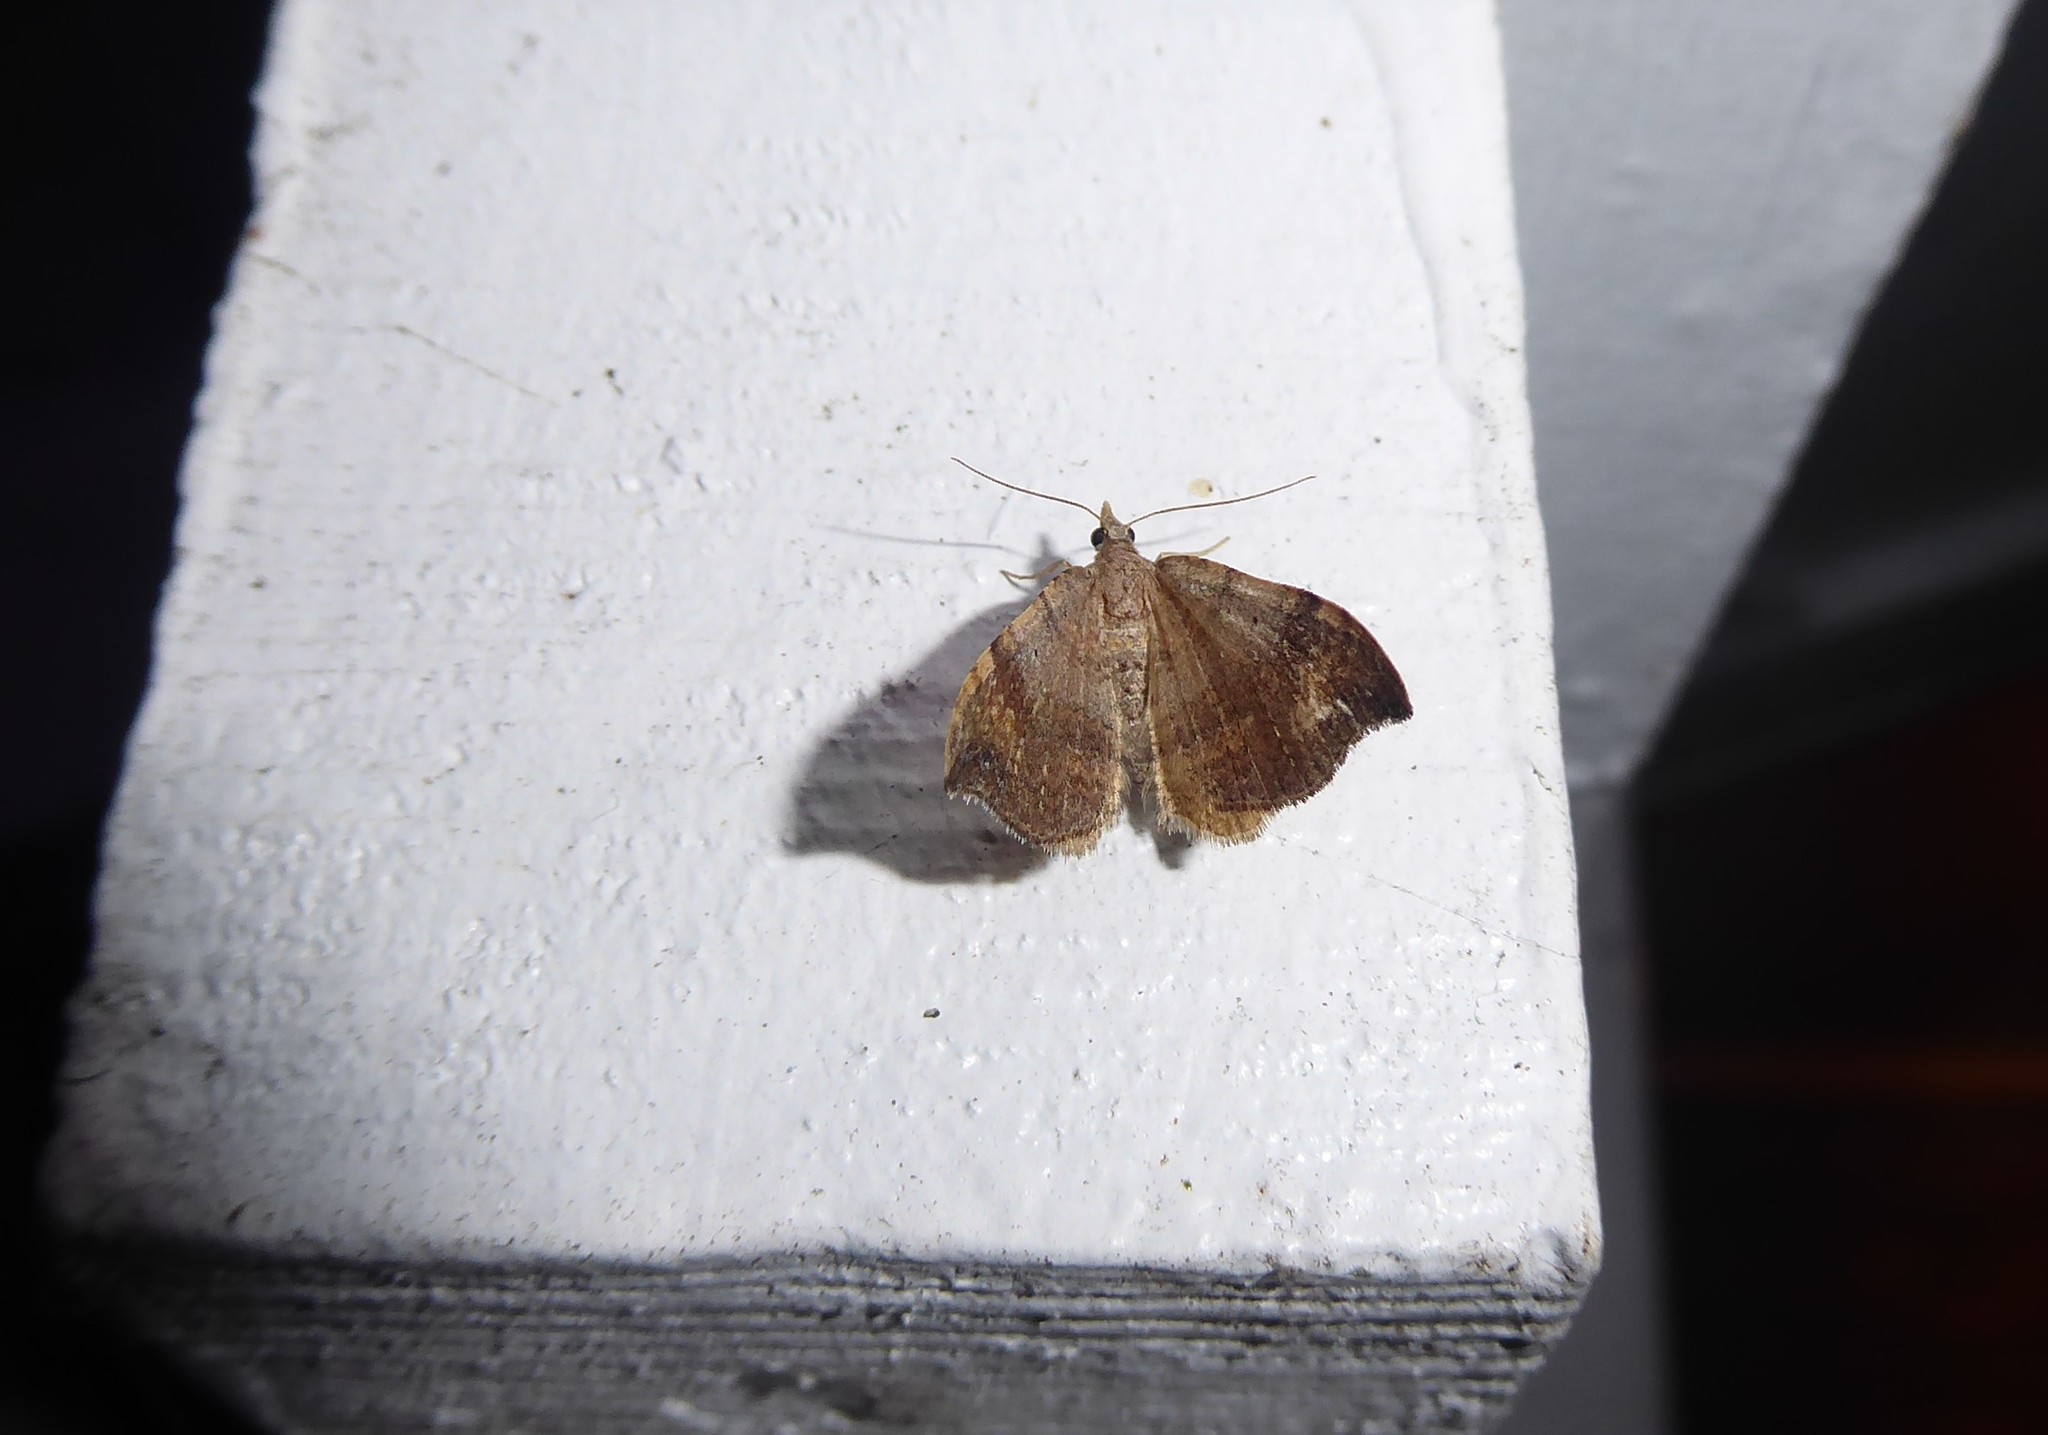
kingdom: Animalia
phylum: Arthropoda
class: Insecta
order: Lepidoptera
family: Geometridae
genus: Homodotis
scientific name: Homodotis megaspilata
